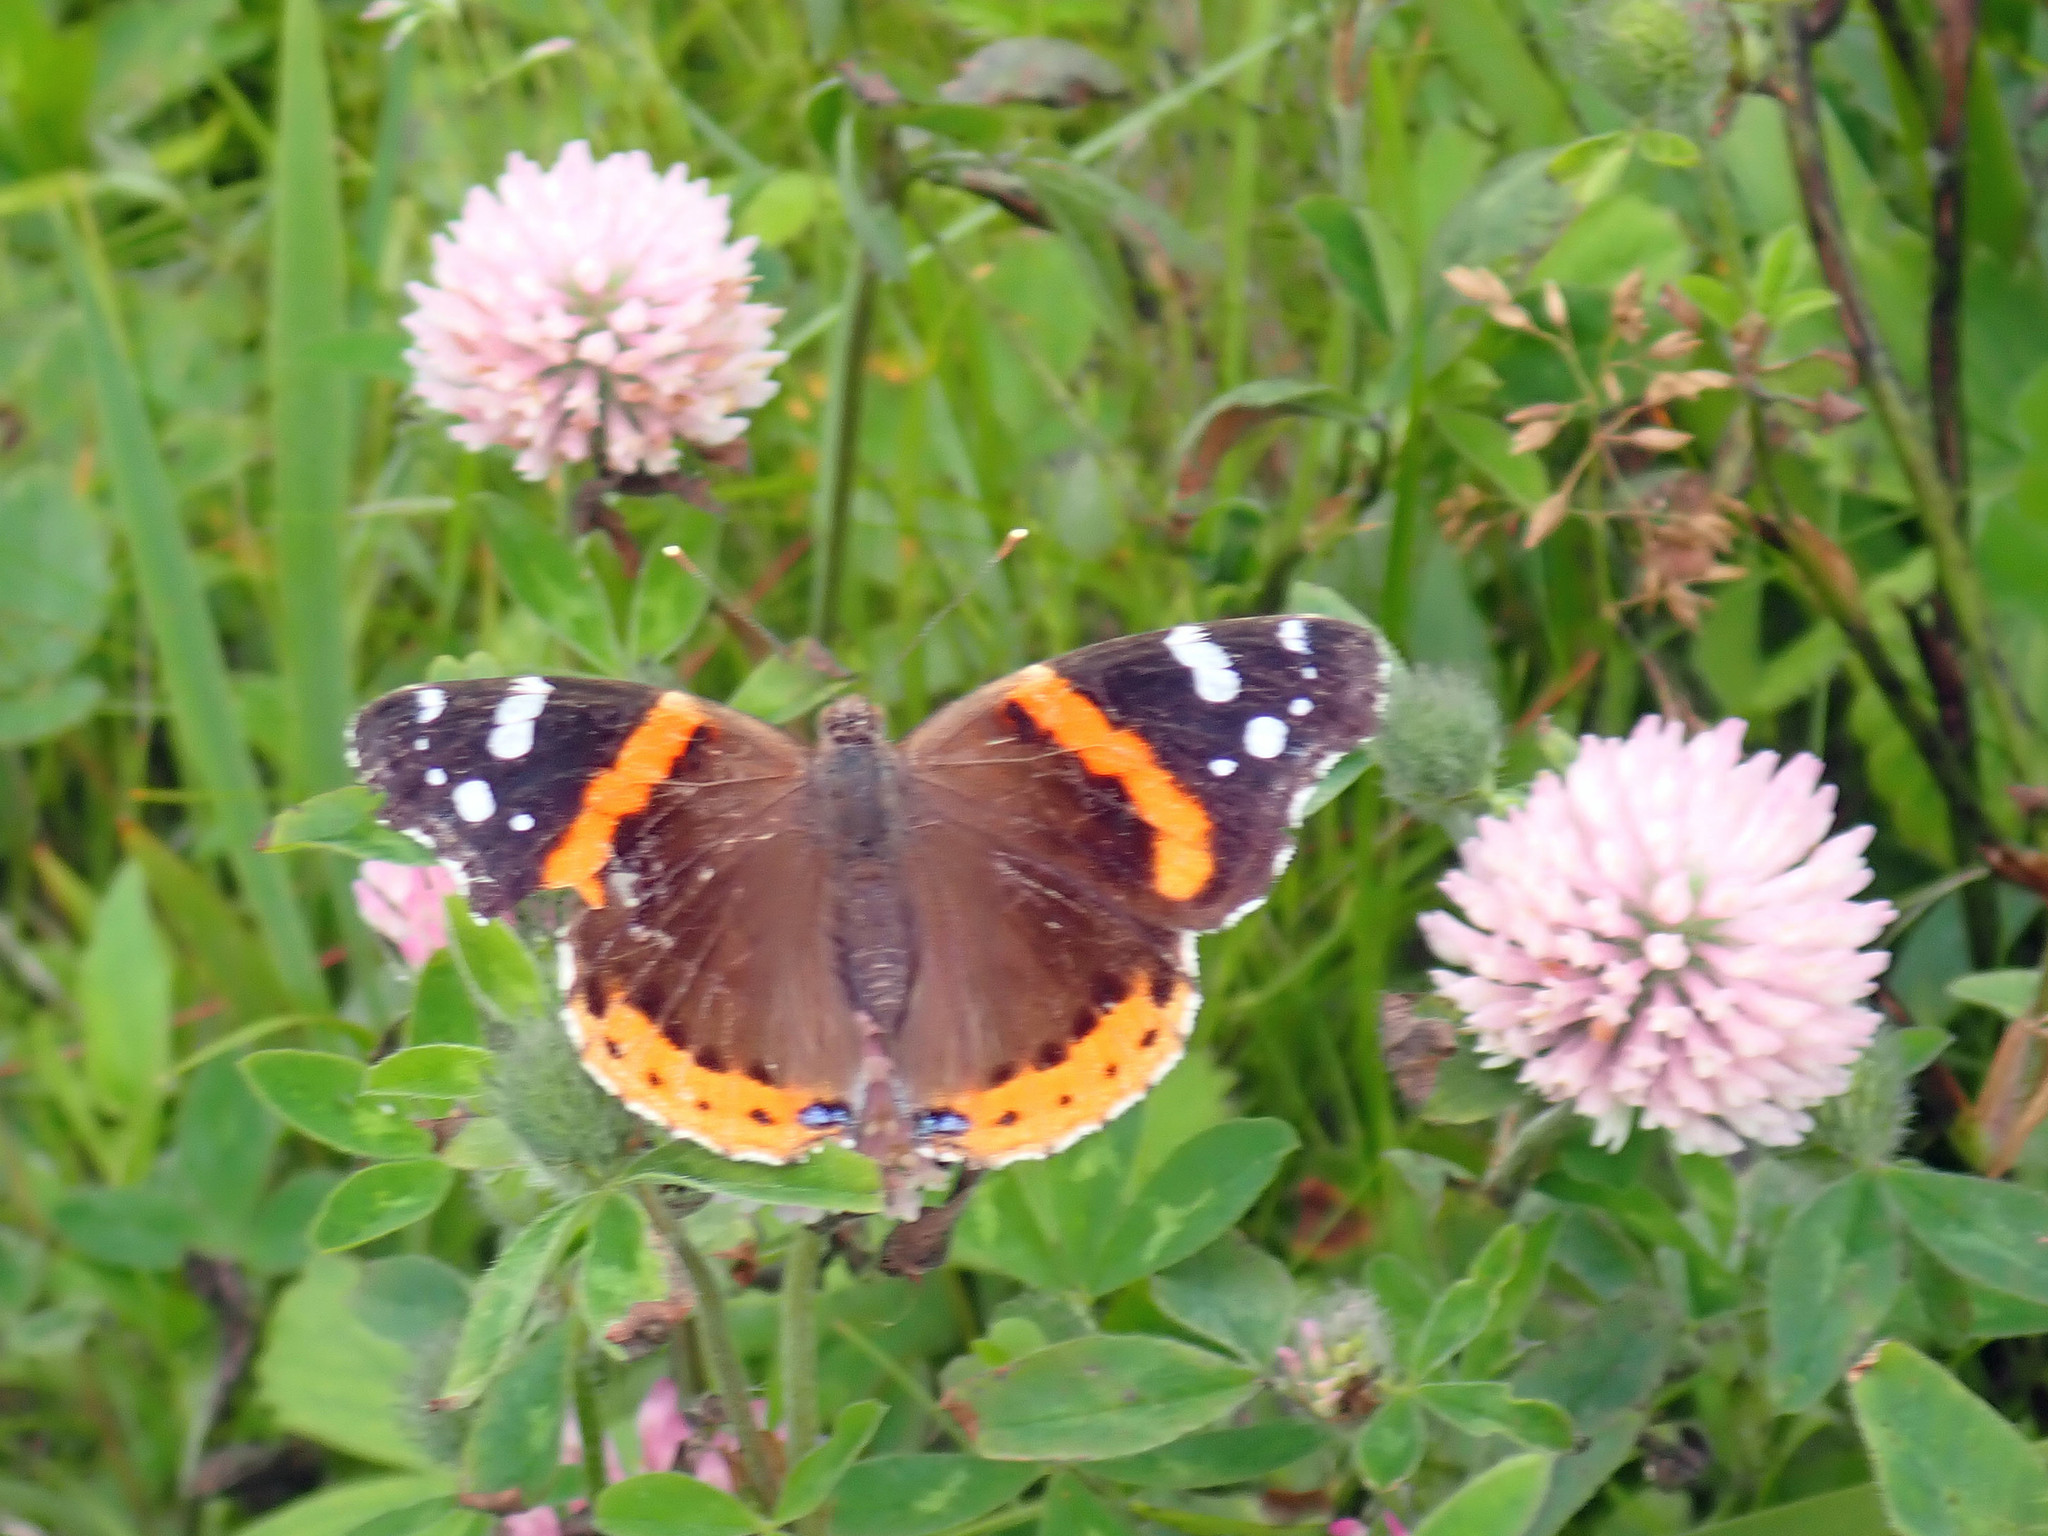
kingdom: Animalia
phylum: Arthropoda
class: Insecta
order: Lepidoptera
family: Nymphalidae
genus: Vanessa
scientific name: Vanessa atalanta
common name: Red admiral
